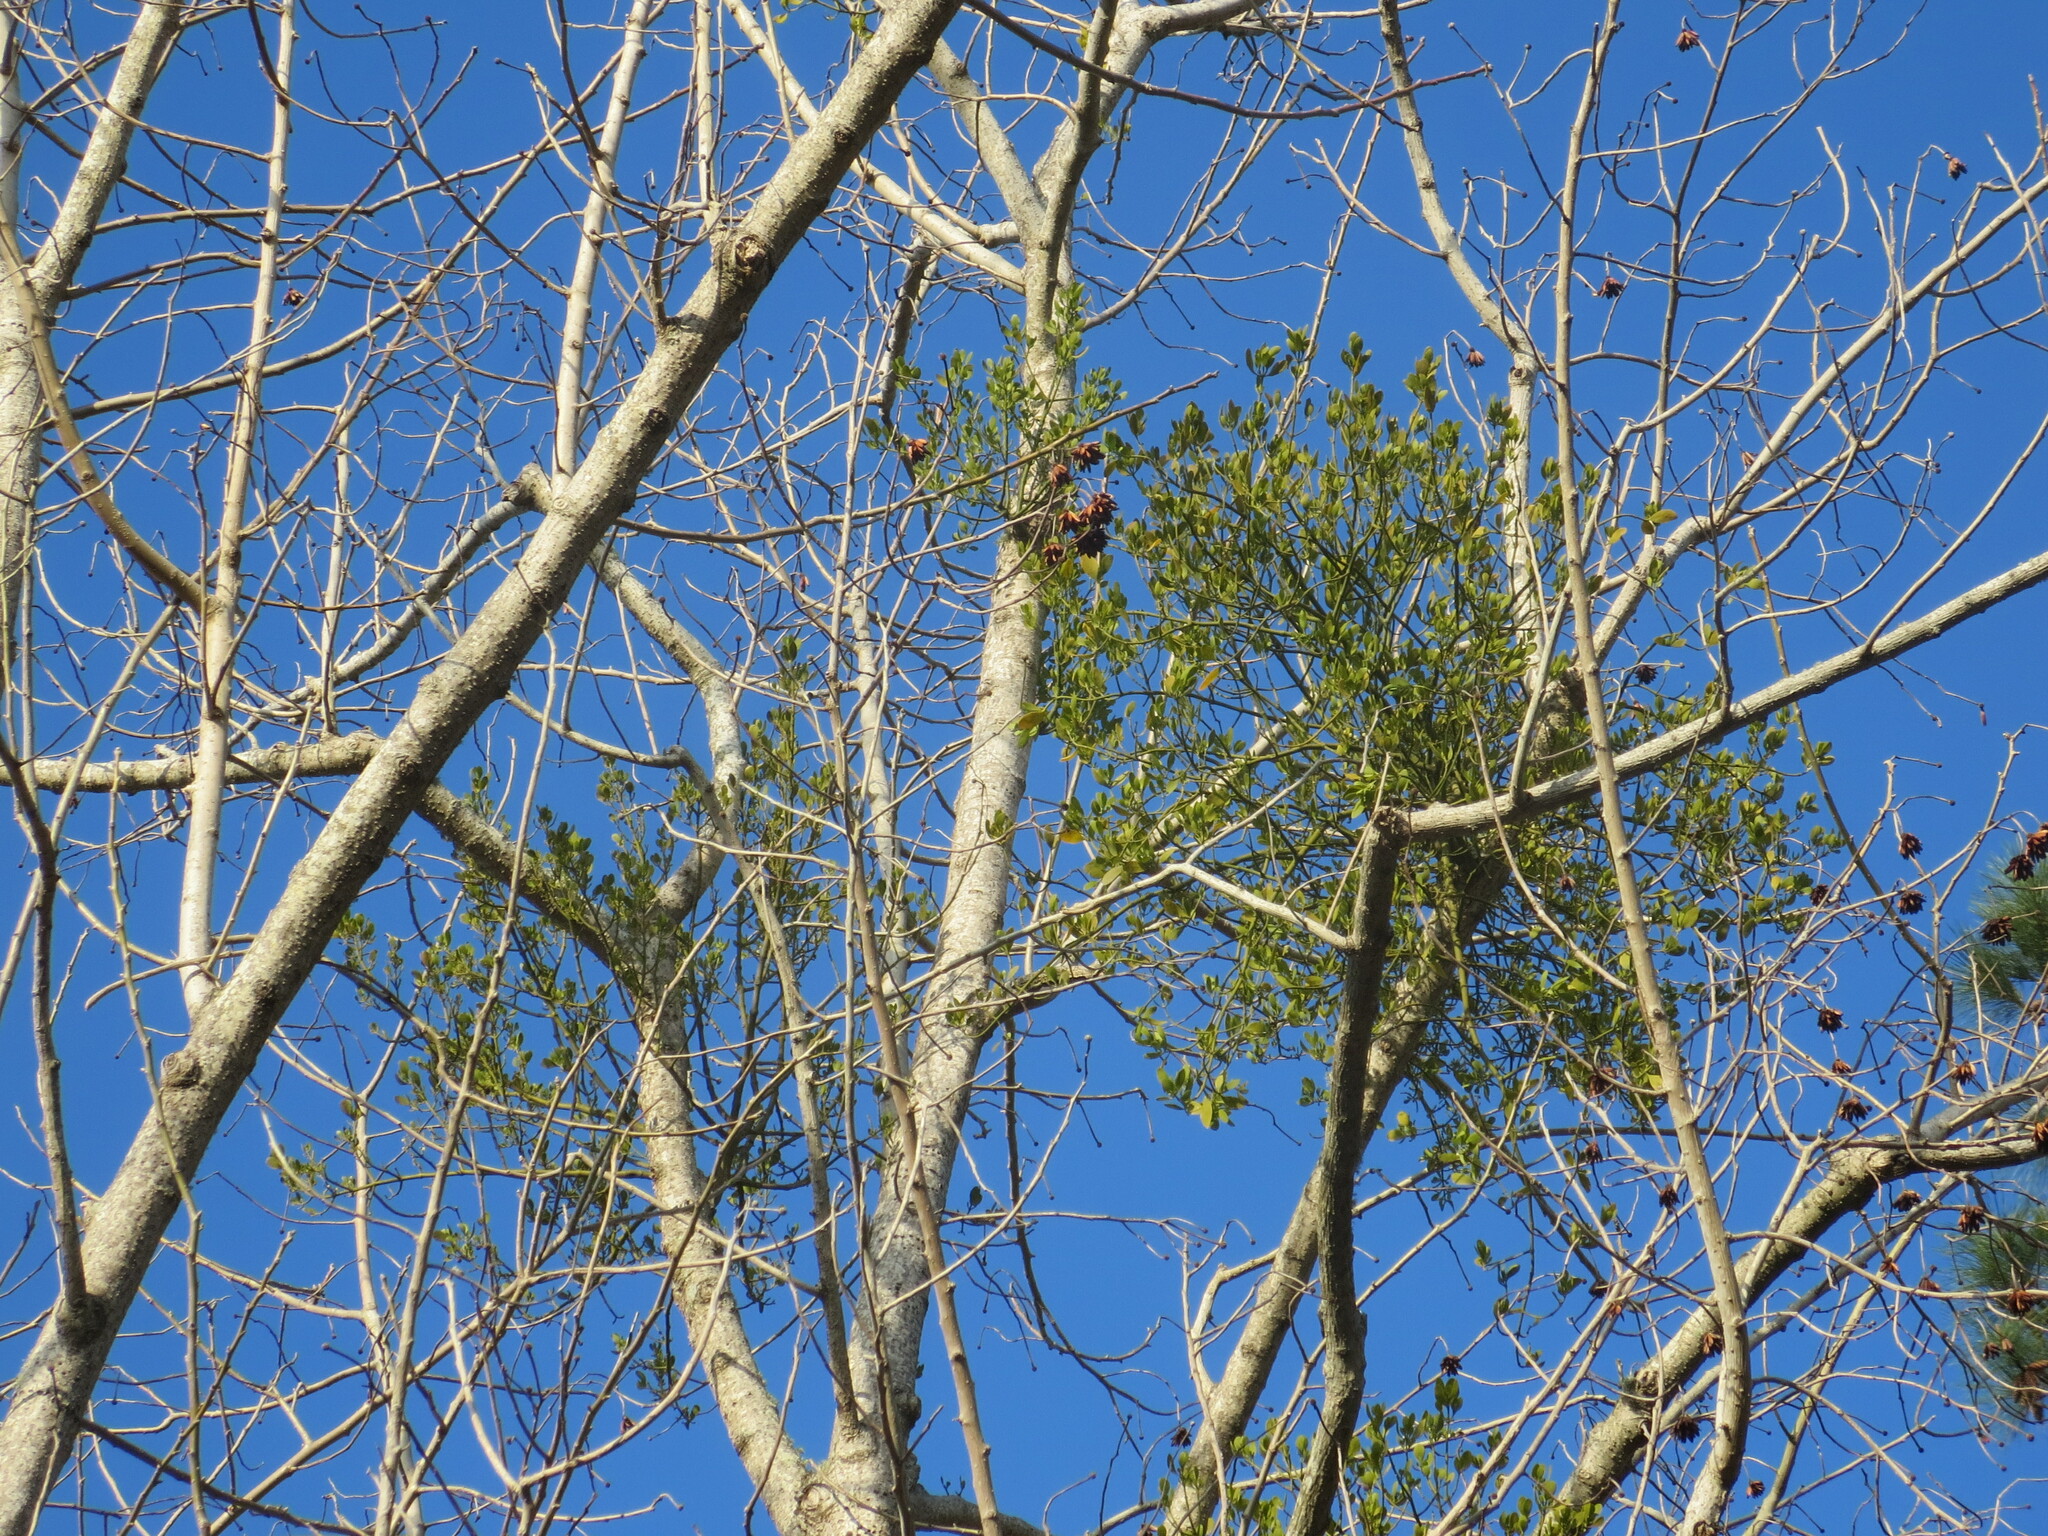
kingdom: Plantae
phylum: Tracheophyta
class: Magnoliopsida
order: Santalales
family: Viscaceae
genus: Phoradendron
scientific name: Phoradendron leucarpum
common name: Pacific mistletoe
